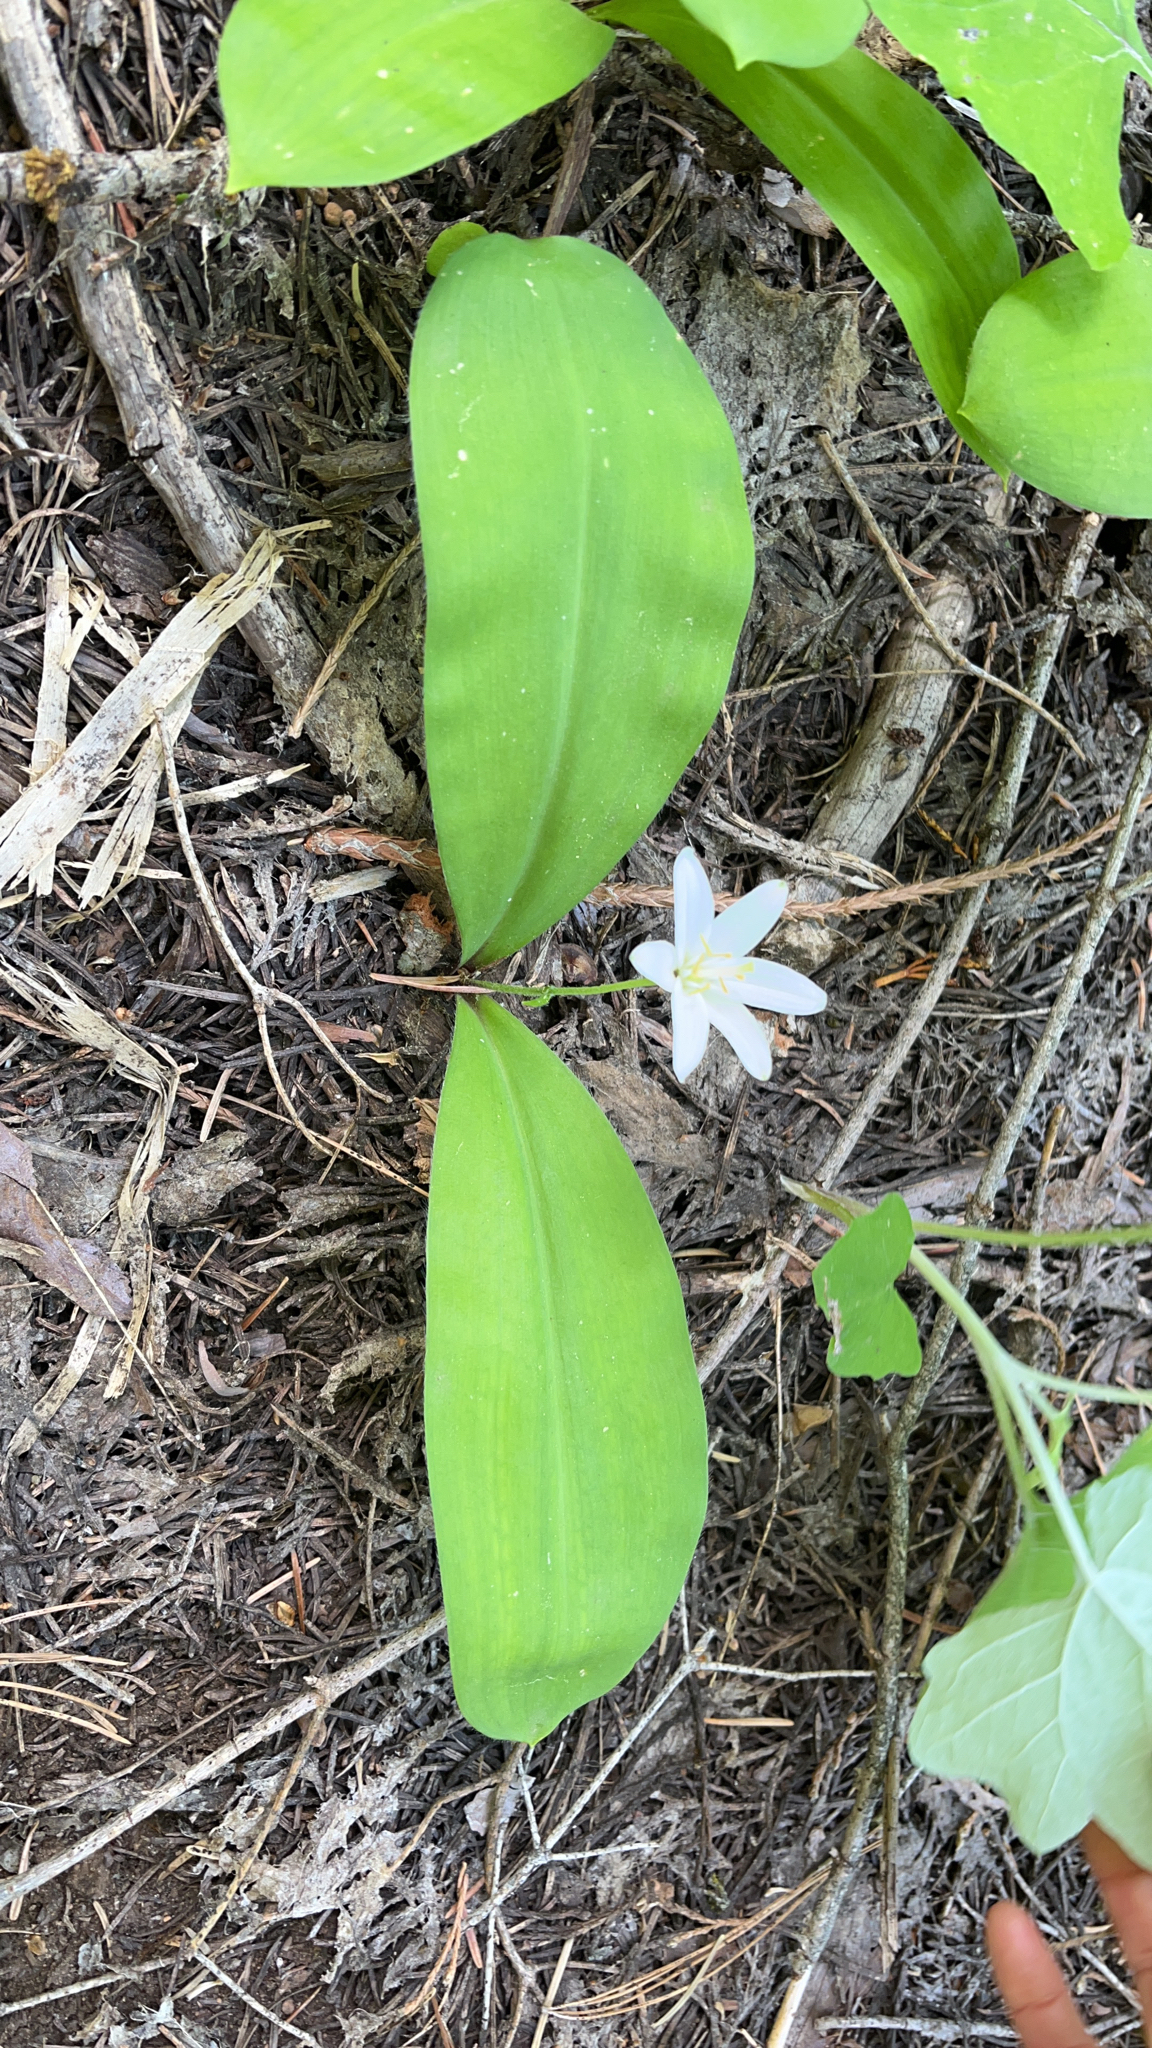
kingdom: Plantae
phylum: Tracheophyta
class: Liliopsida
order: Liliales
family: Liliaceae
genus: Clintonia
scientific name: Clintonia uniflora
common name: Queen's cup
